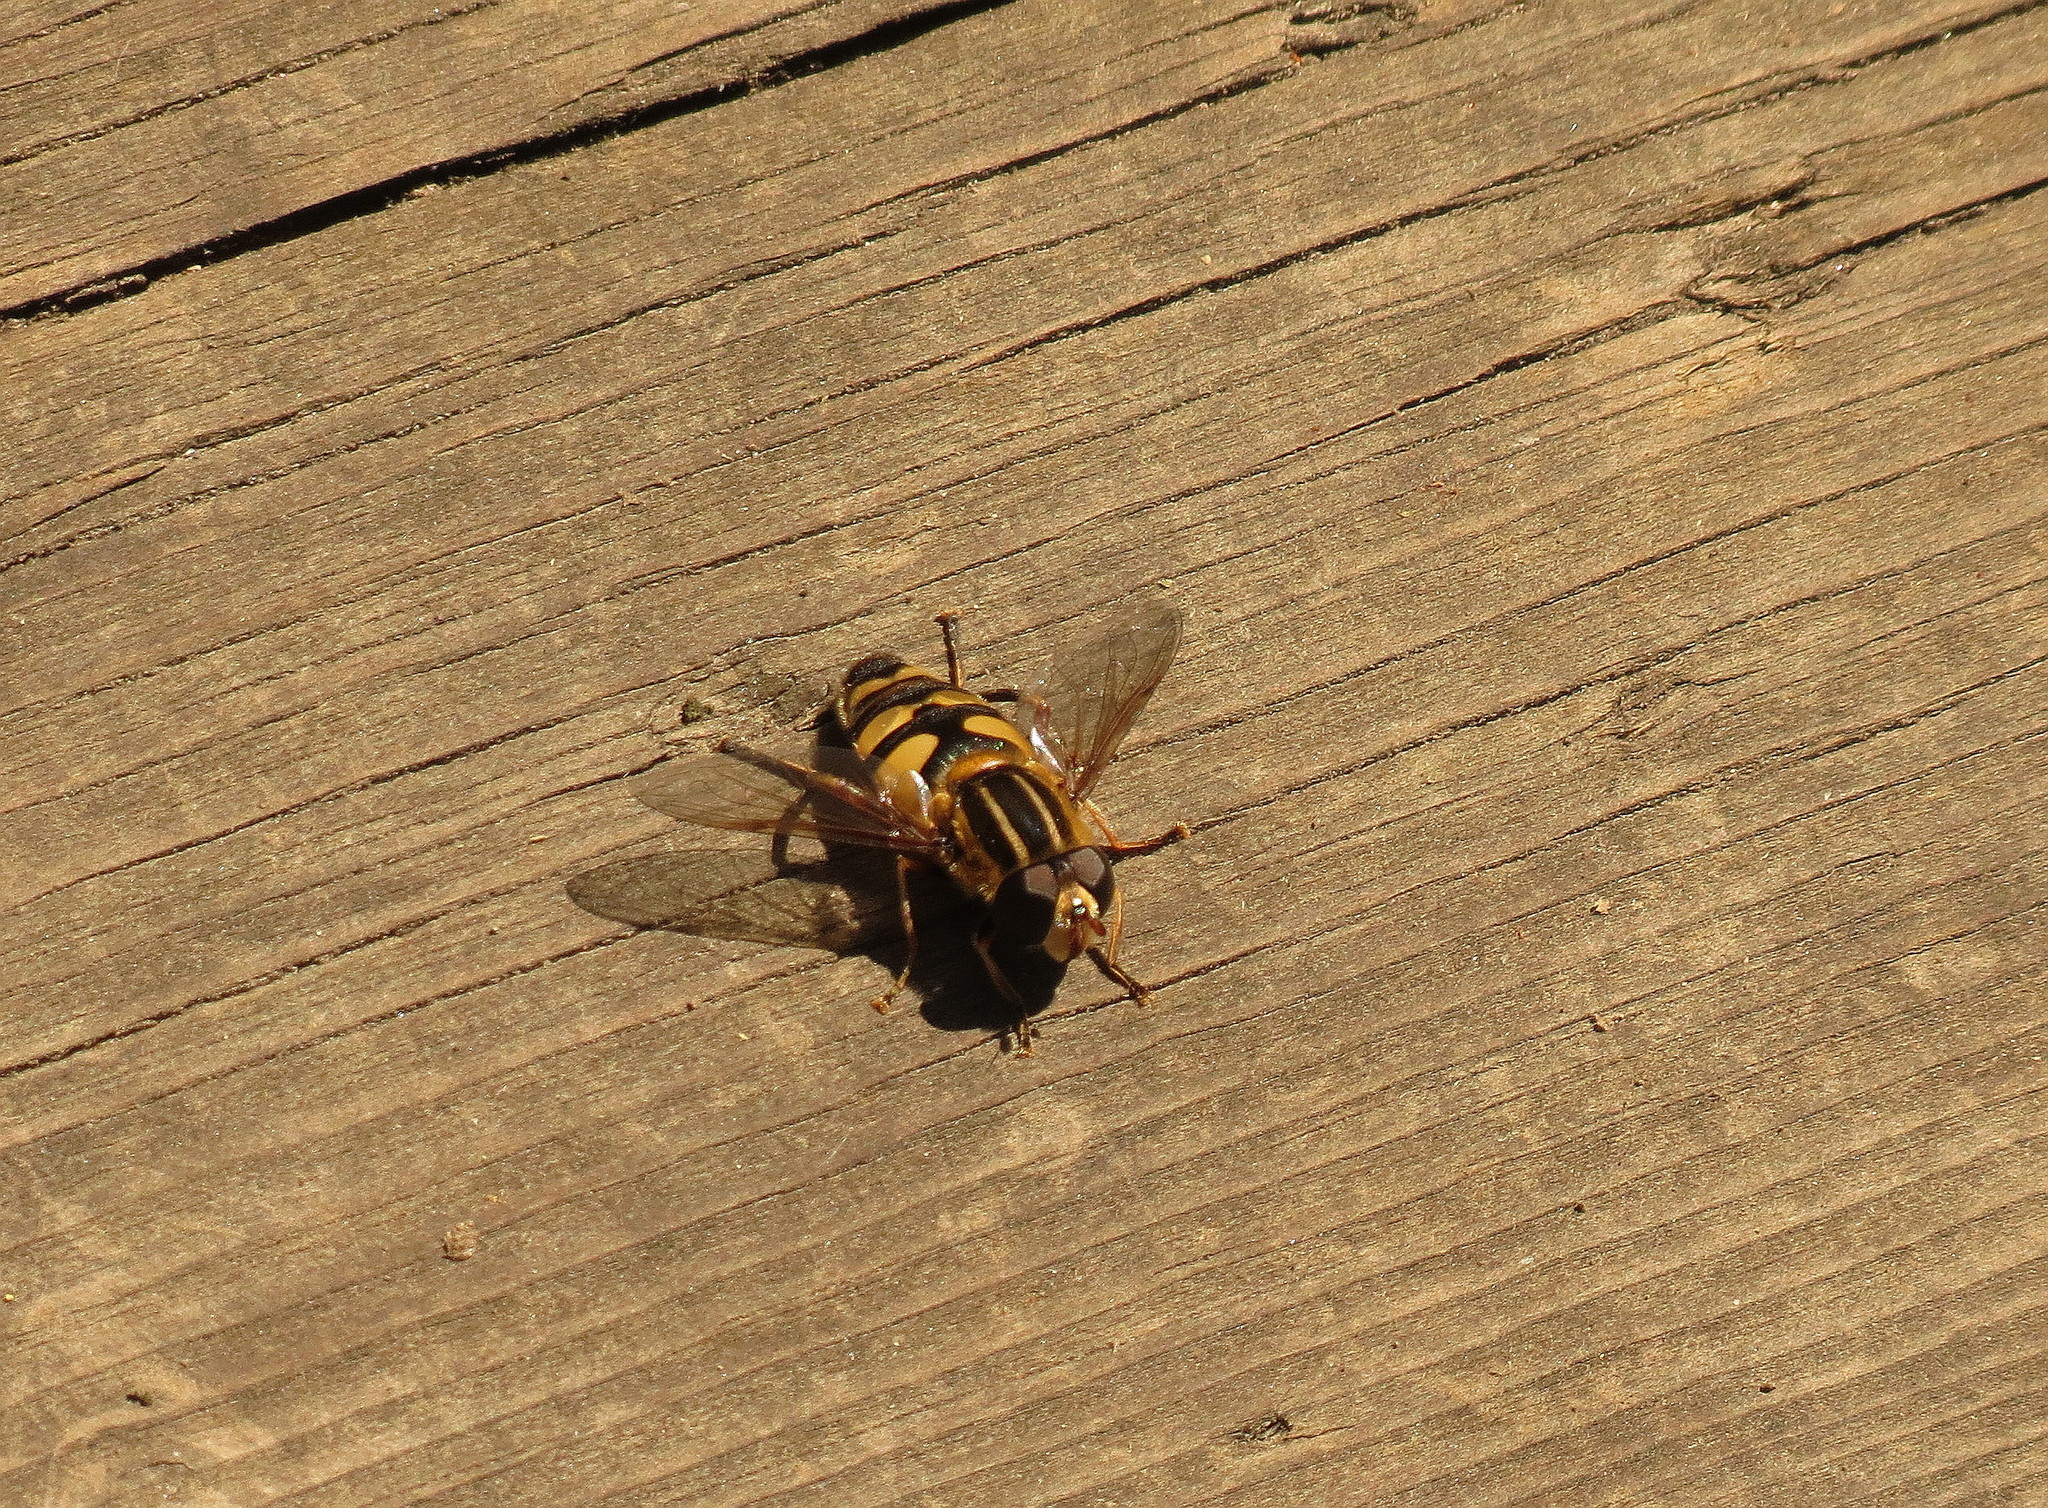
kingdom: Animalia
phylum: Arthropoda
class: Insecta
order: Diptera
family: Syrphidae
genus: Helophilus
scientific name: Helophilus fasciatus
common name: Narrow-headed marsh fly
